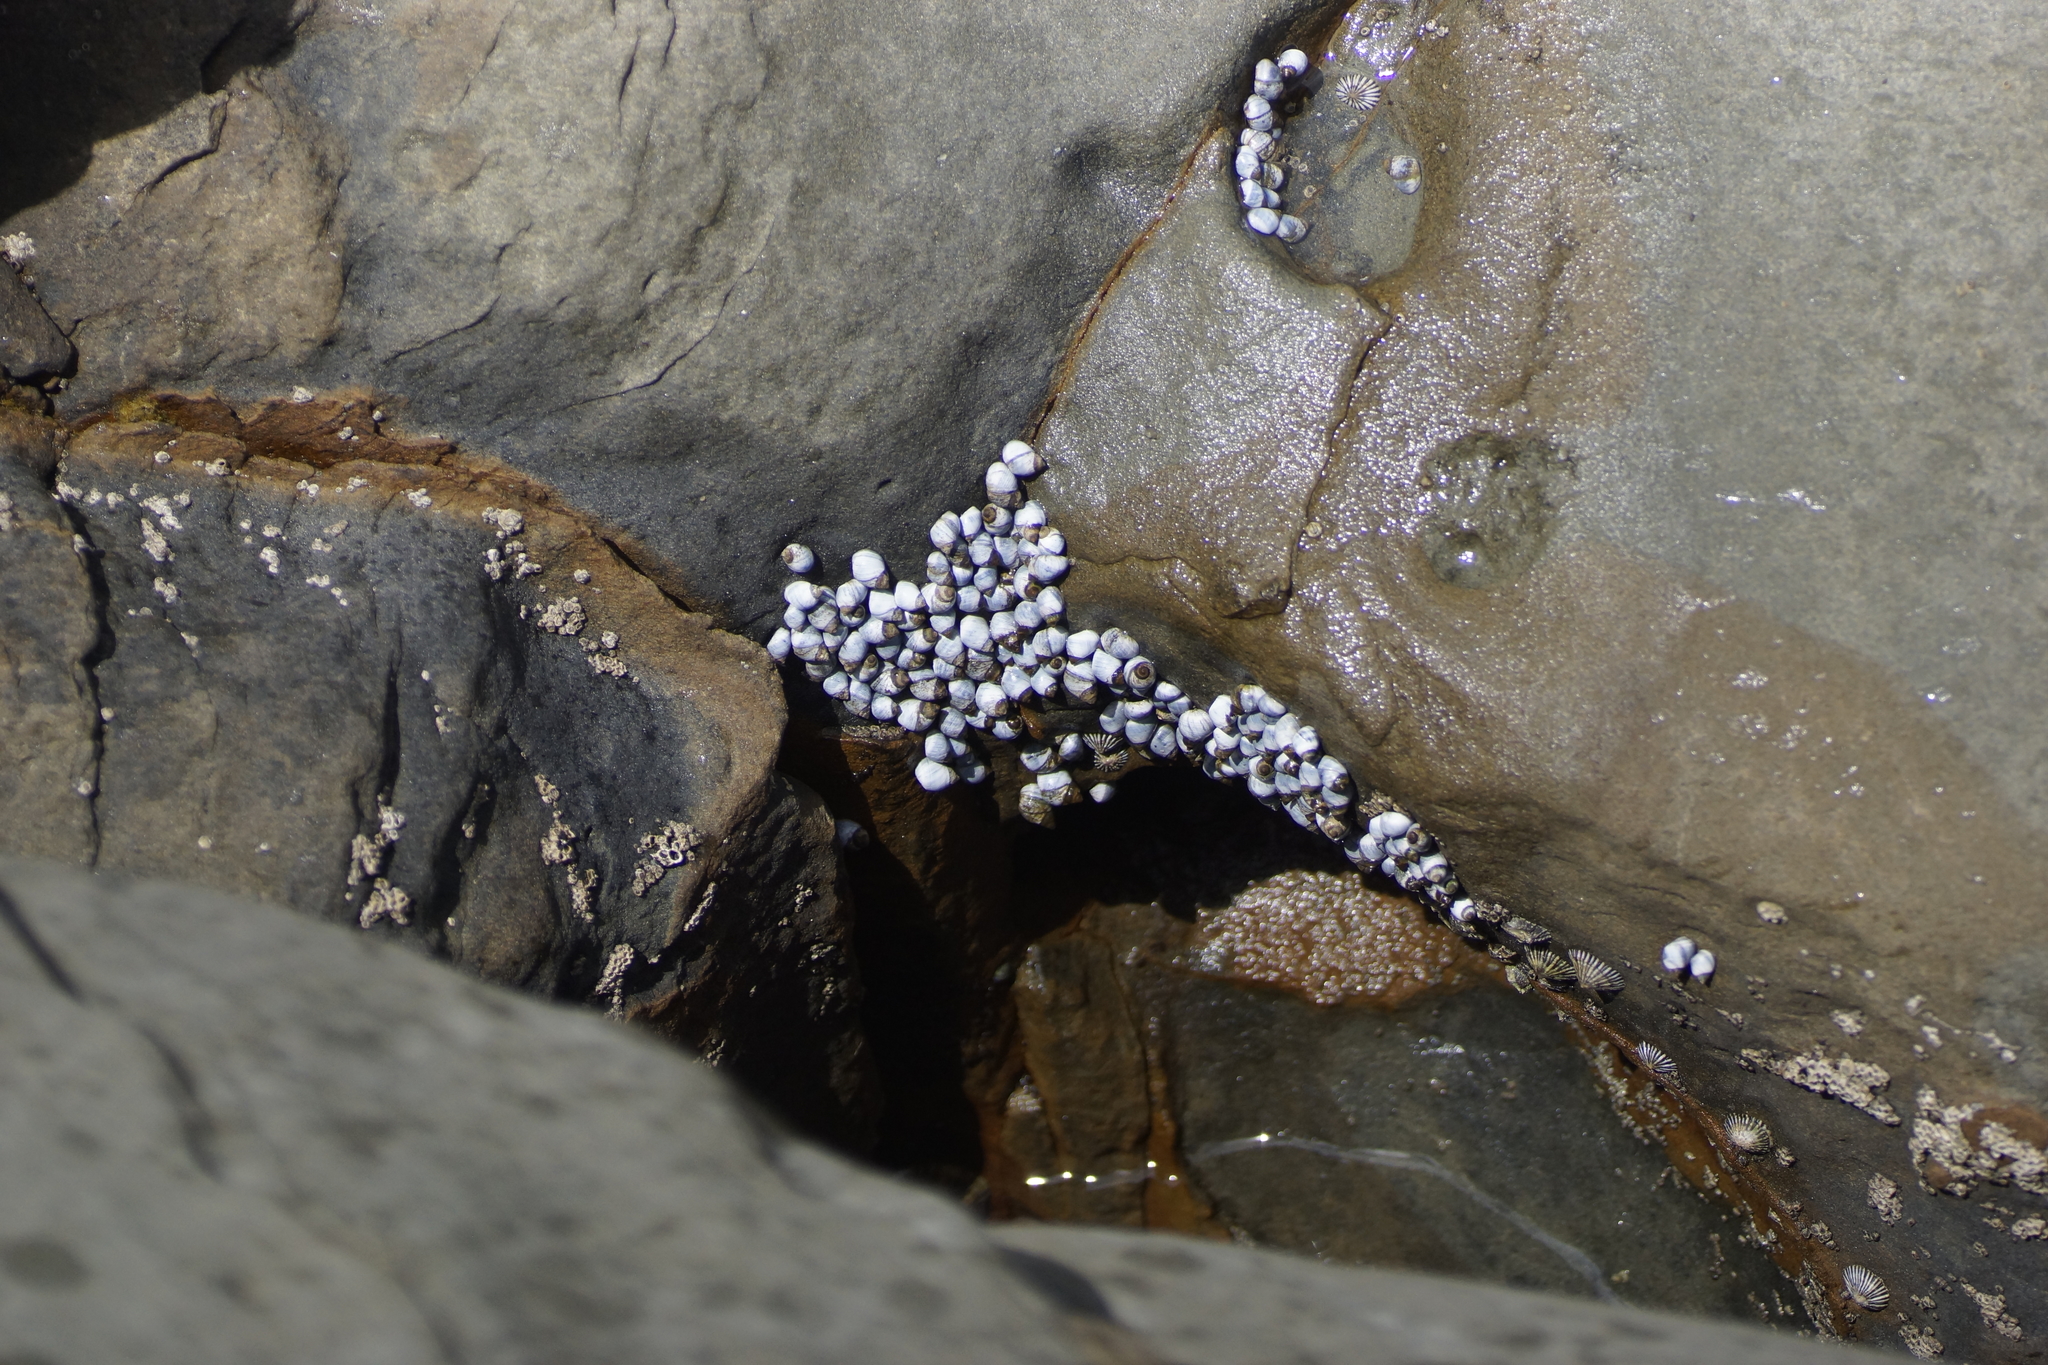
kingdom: Animalia
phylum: Mollusca
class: Gastropoda
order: Littorinimorpha
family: Littorinidae
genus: Austrolittorina
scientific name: Austrolittorina unifasciata
